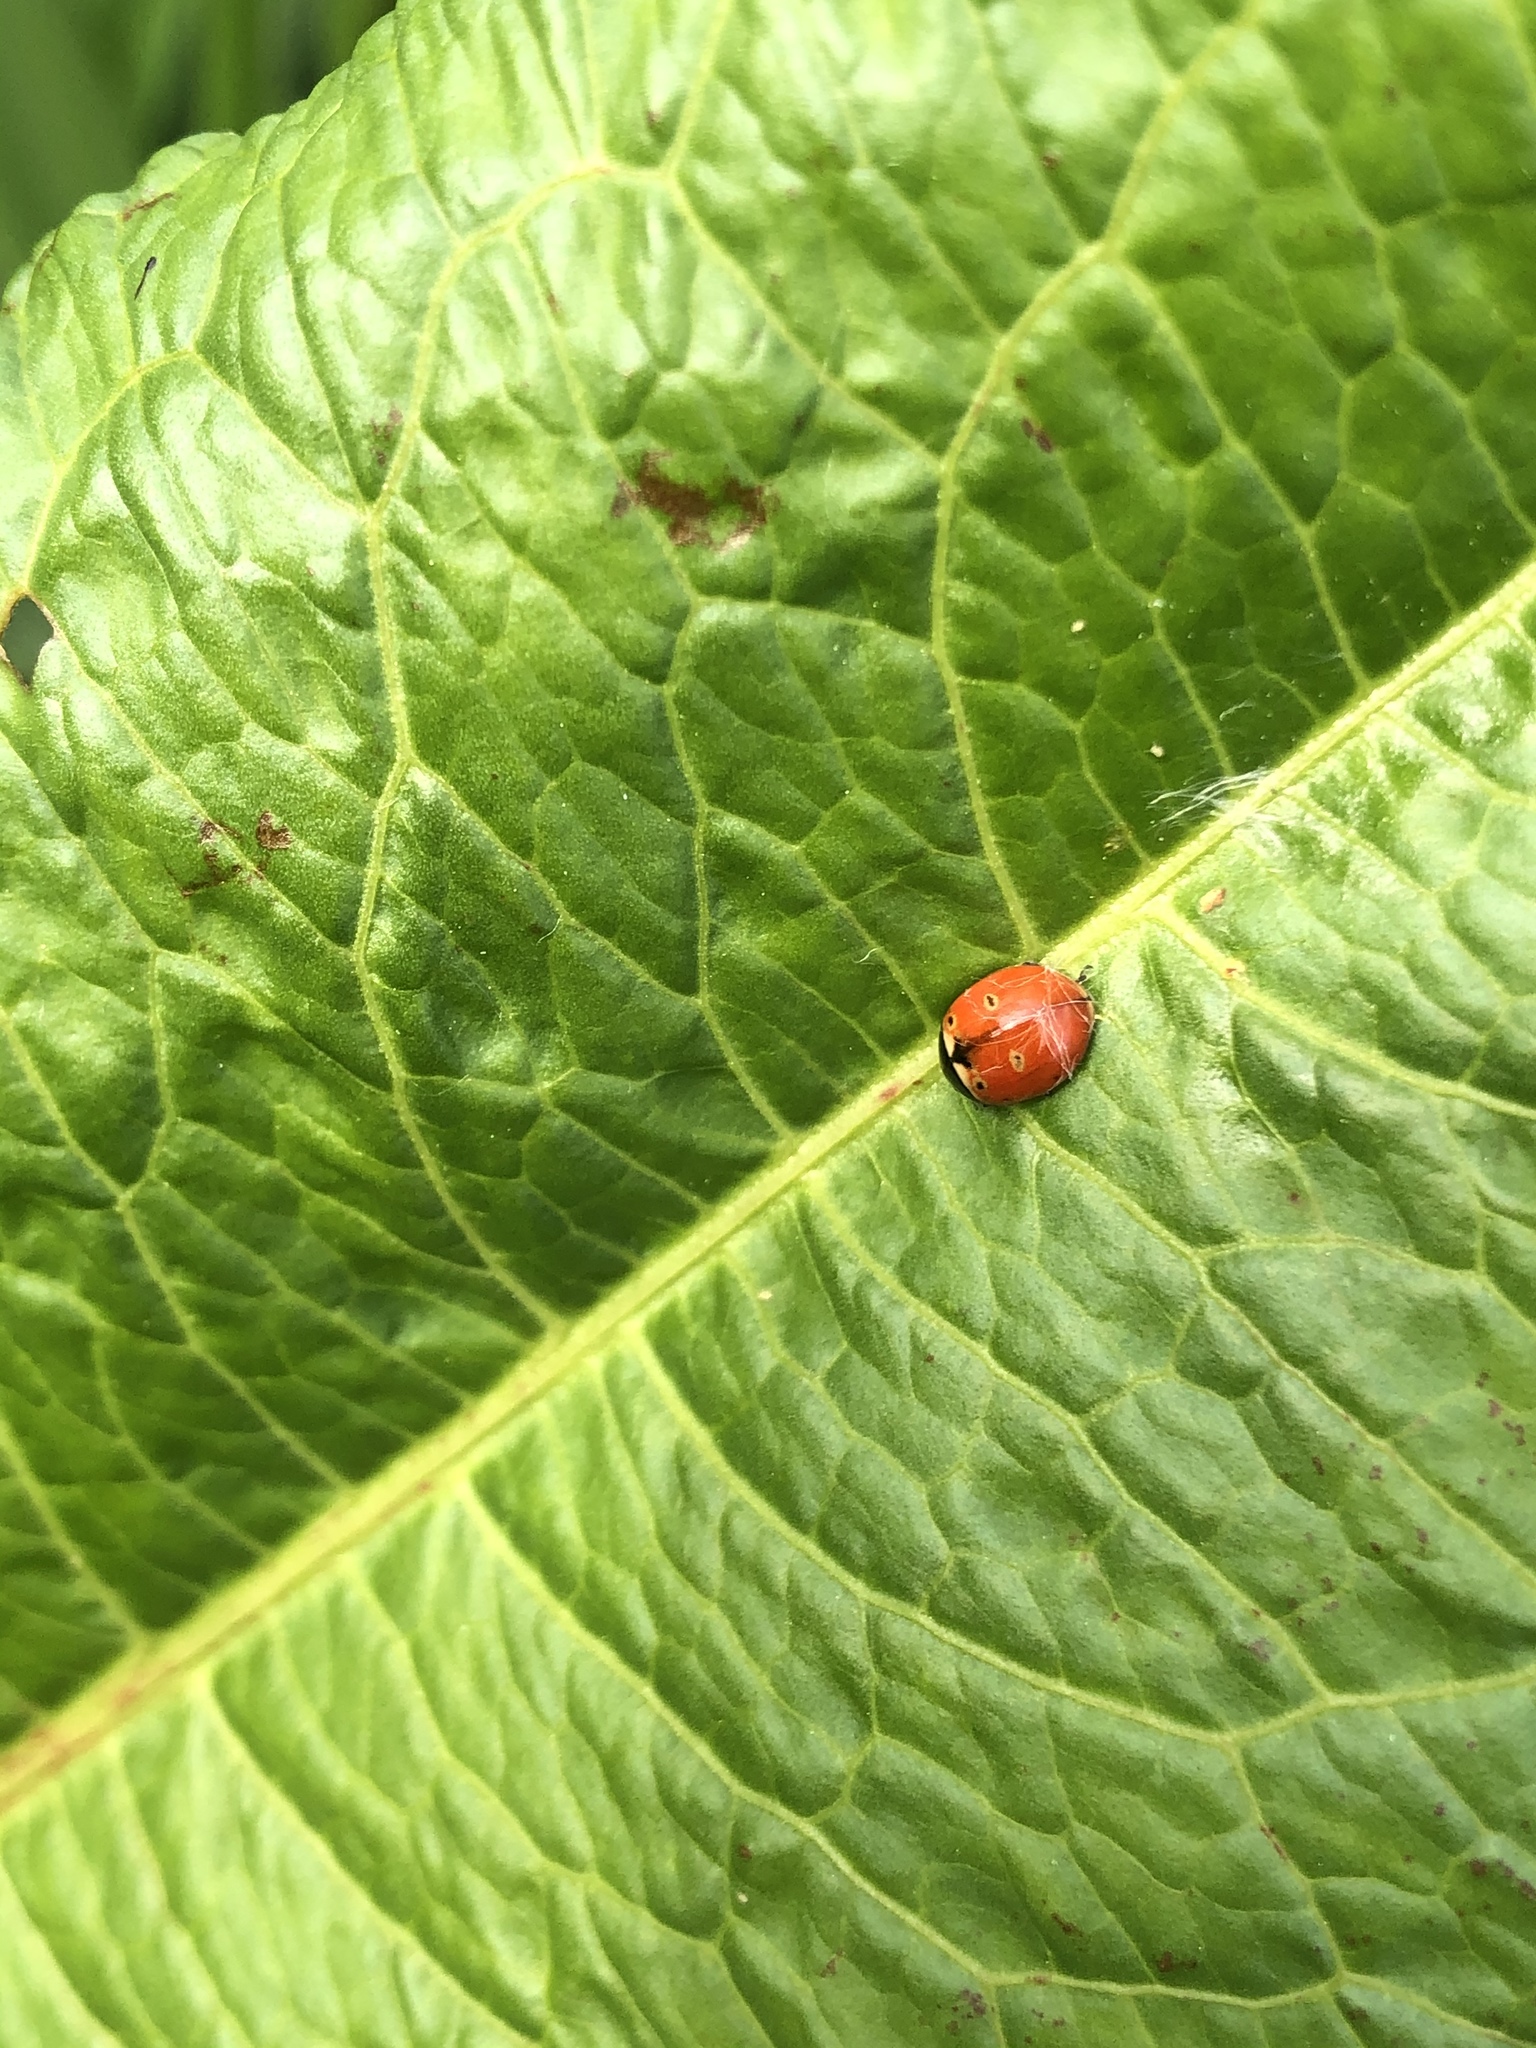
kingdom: Animalia
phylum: Arthropoda
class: Insecta
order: Coleoptera
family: Coccinellidae
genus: Coccinella
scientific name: Coccinella trifasciata
